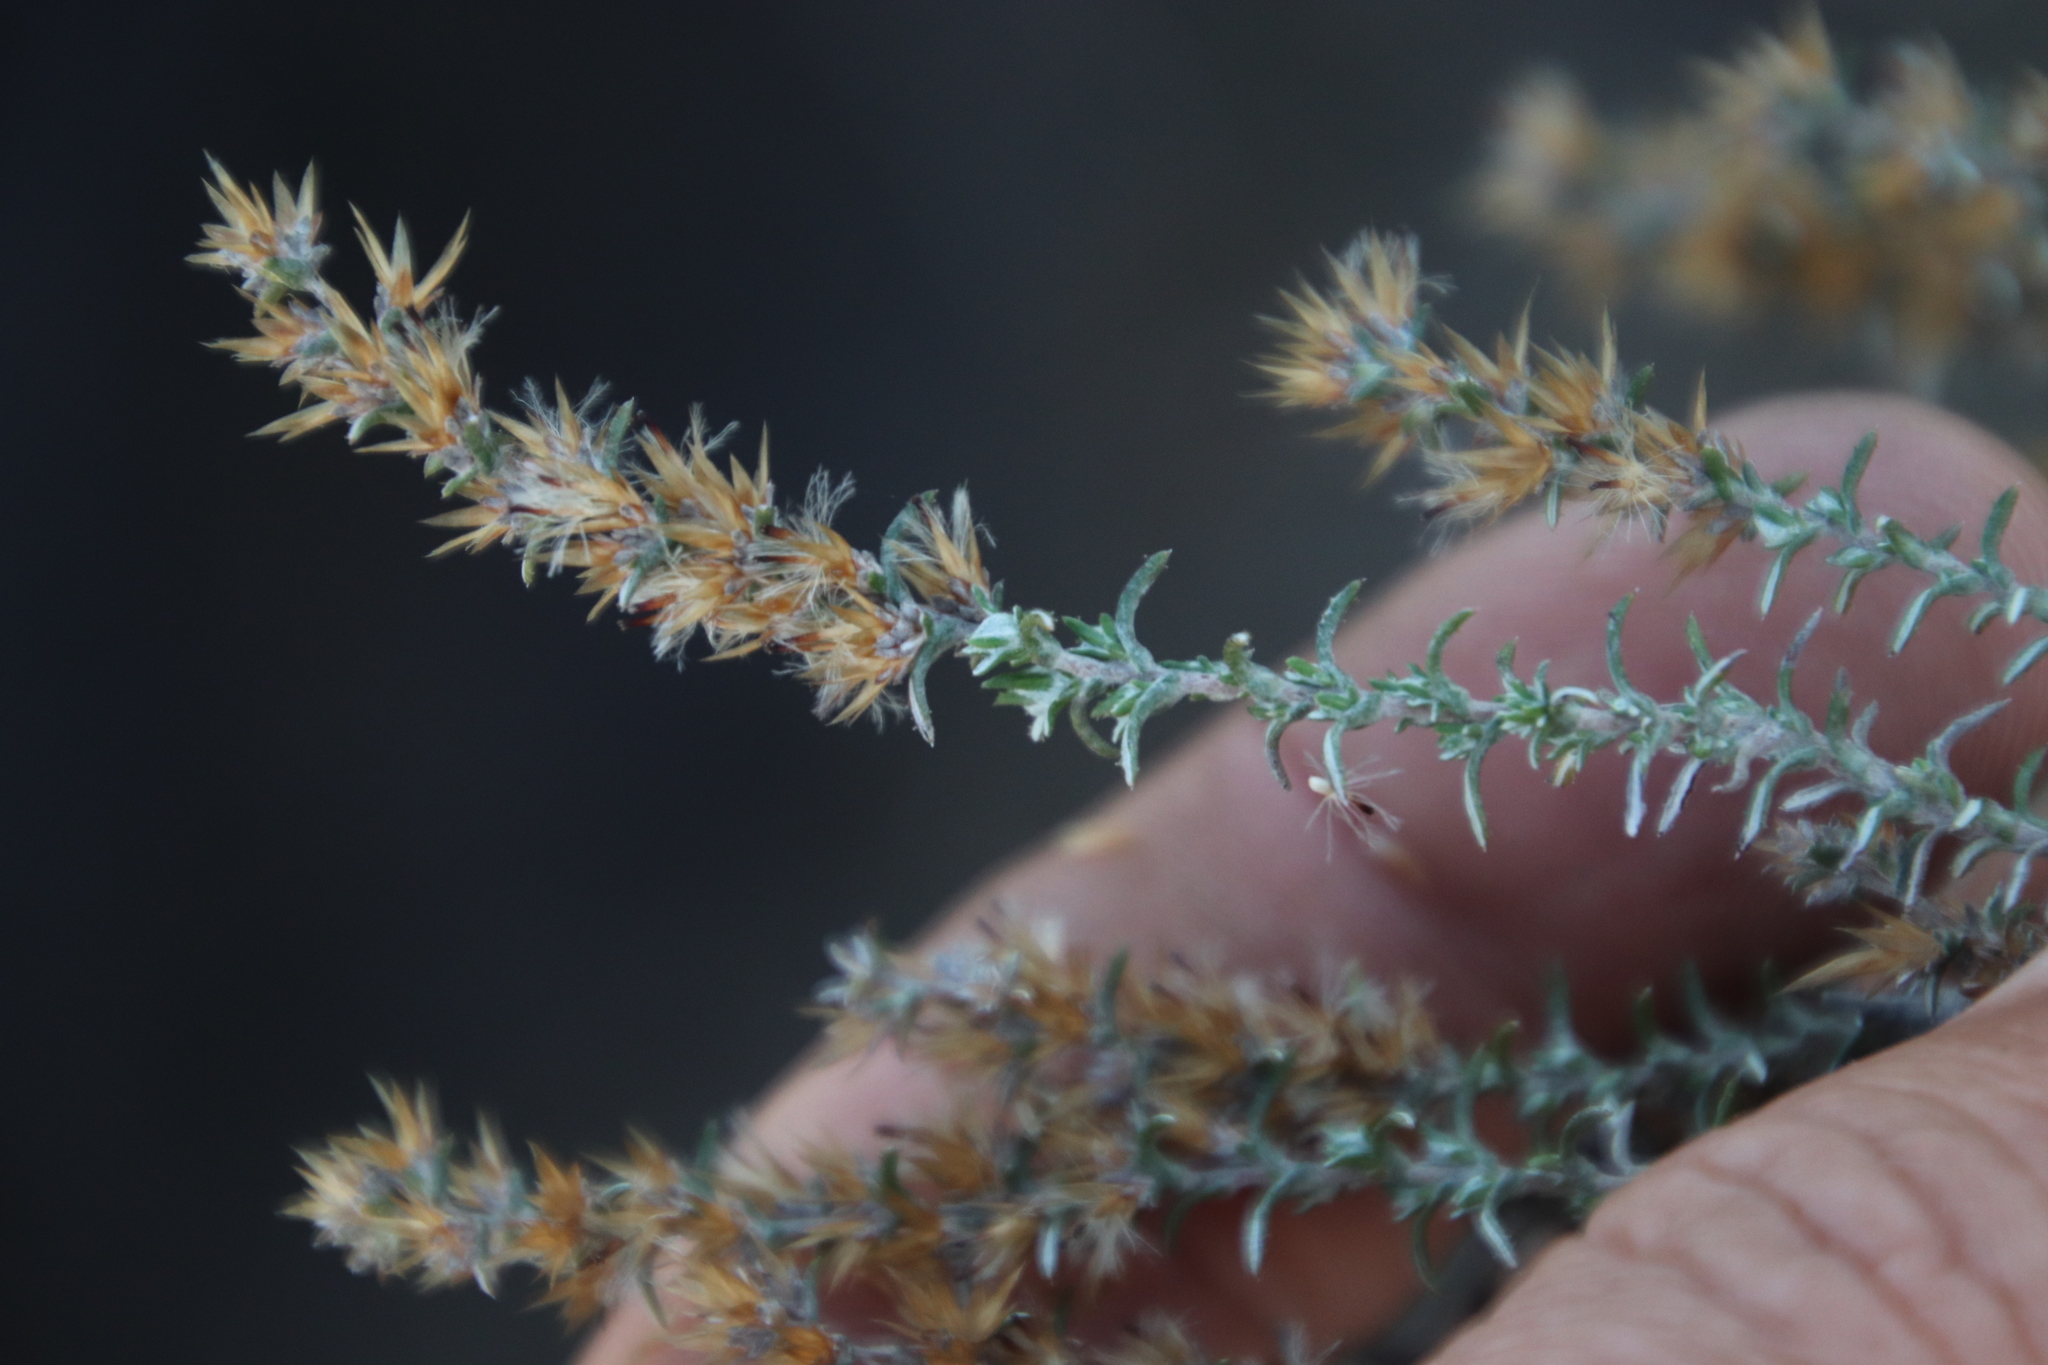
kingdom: Plantae
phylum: Tracheophyta
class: Magnoliopsida
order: Asterales
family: Asteraceae
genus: Myrovernix
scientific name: Myrovernix gnaphaloides
